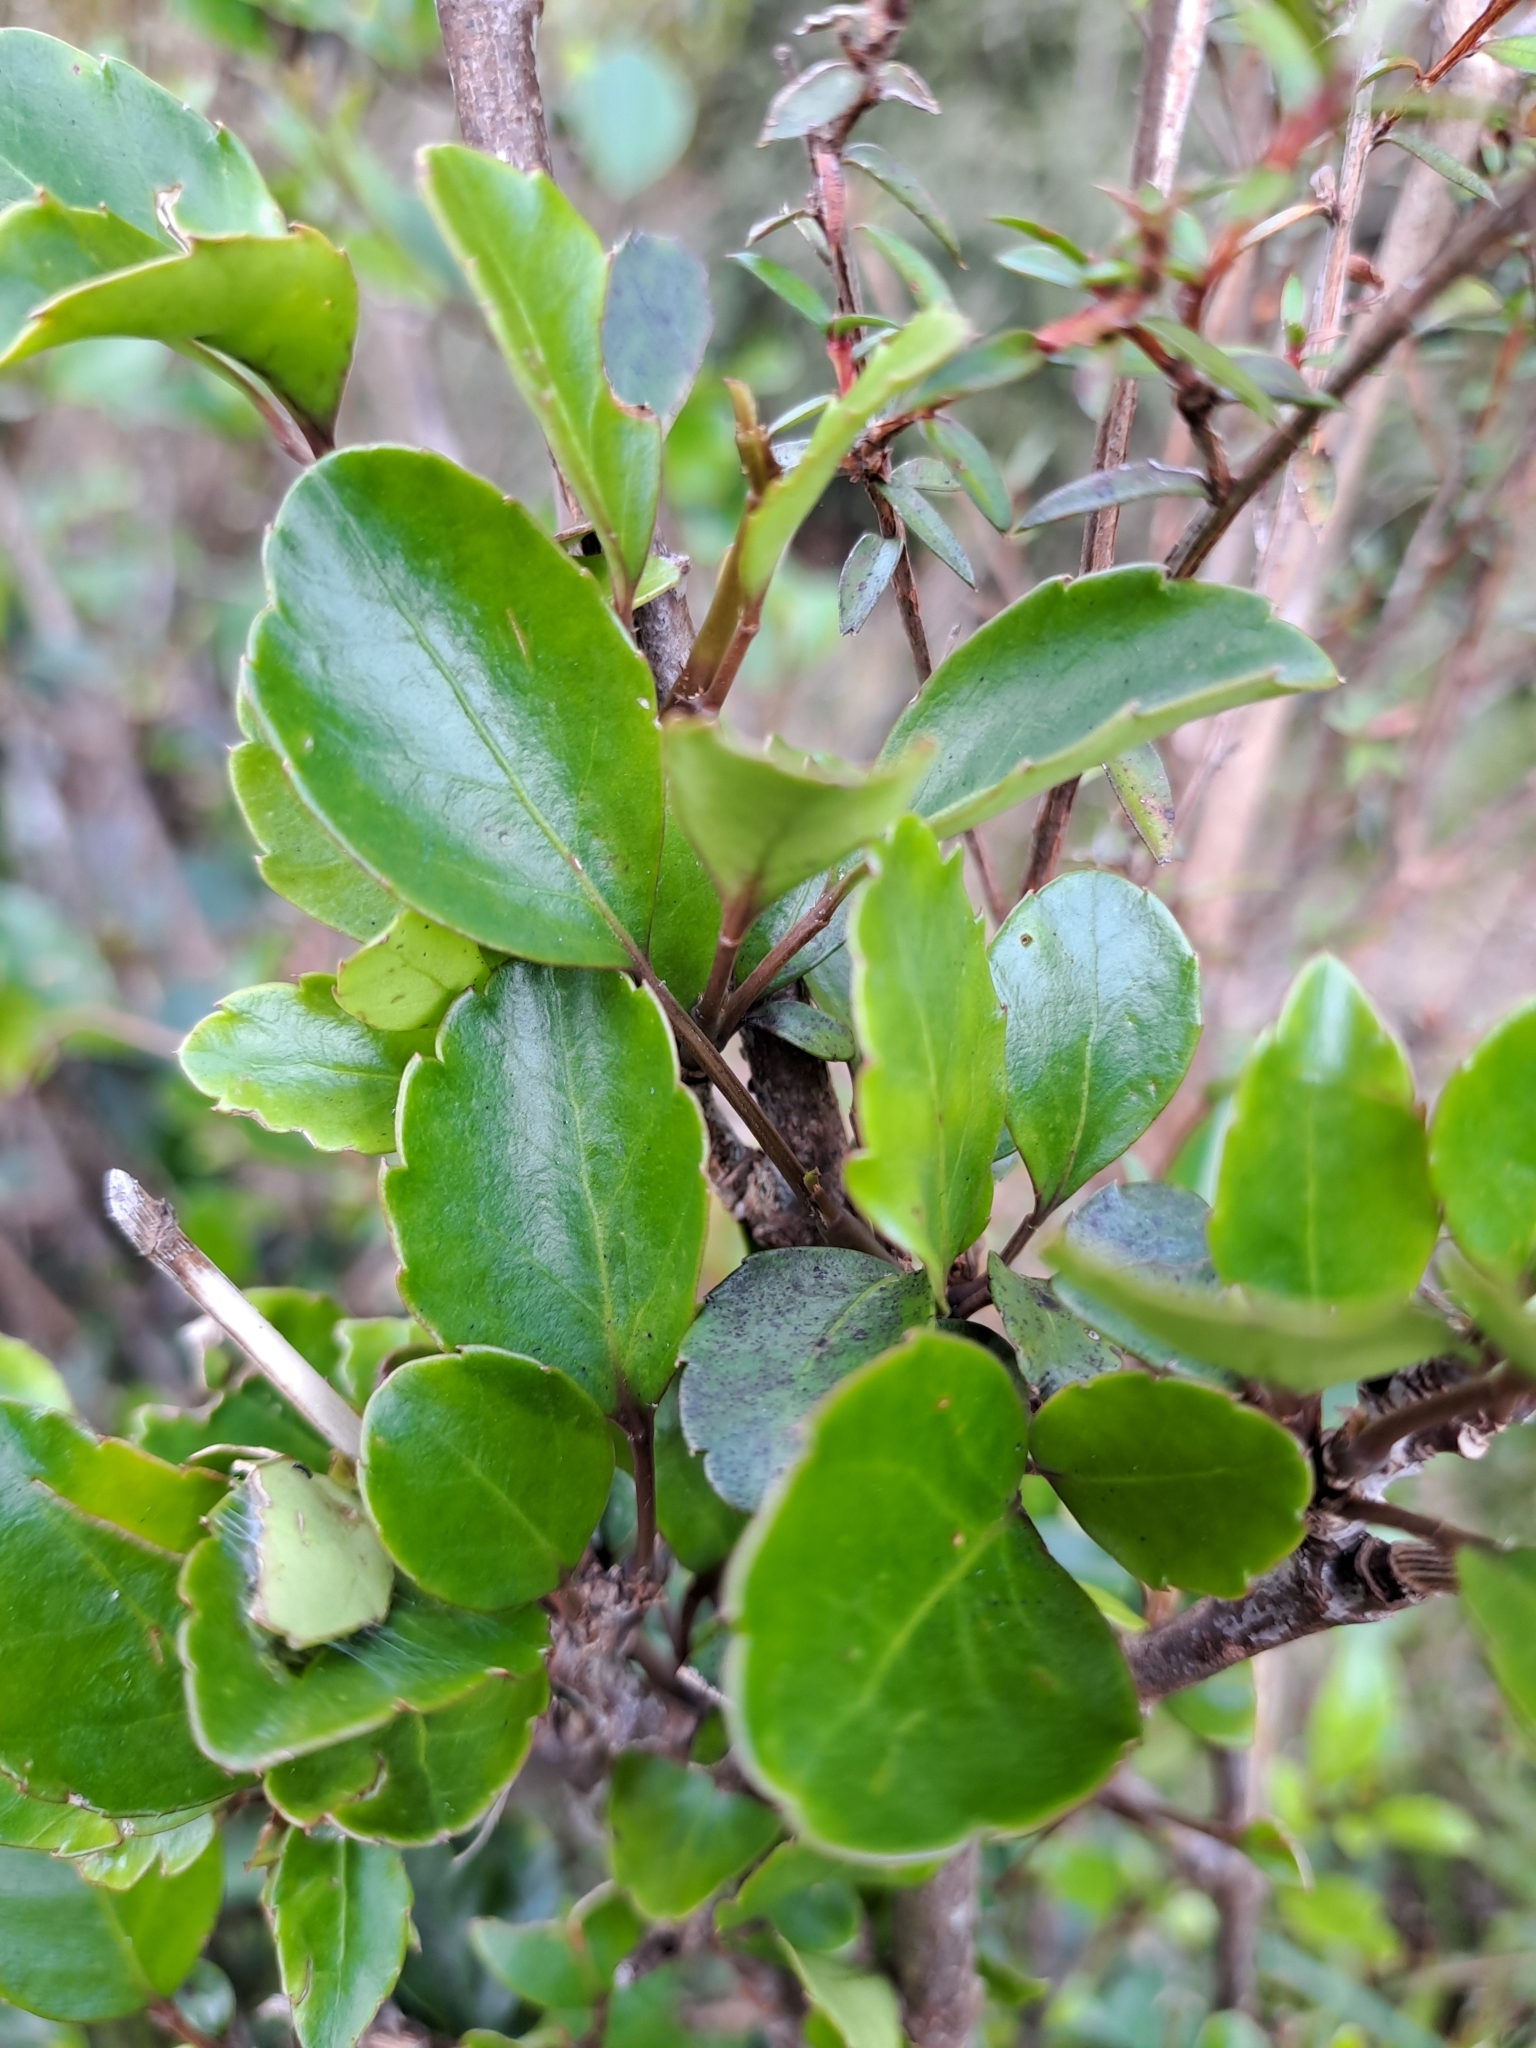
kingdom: Plantae
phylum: Tracheophyta
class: Magnoliopsida
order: Apiales
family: Araliaceae
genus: Raukaua
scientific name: Raukaua simplex
